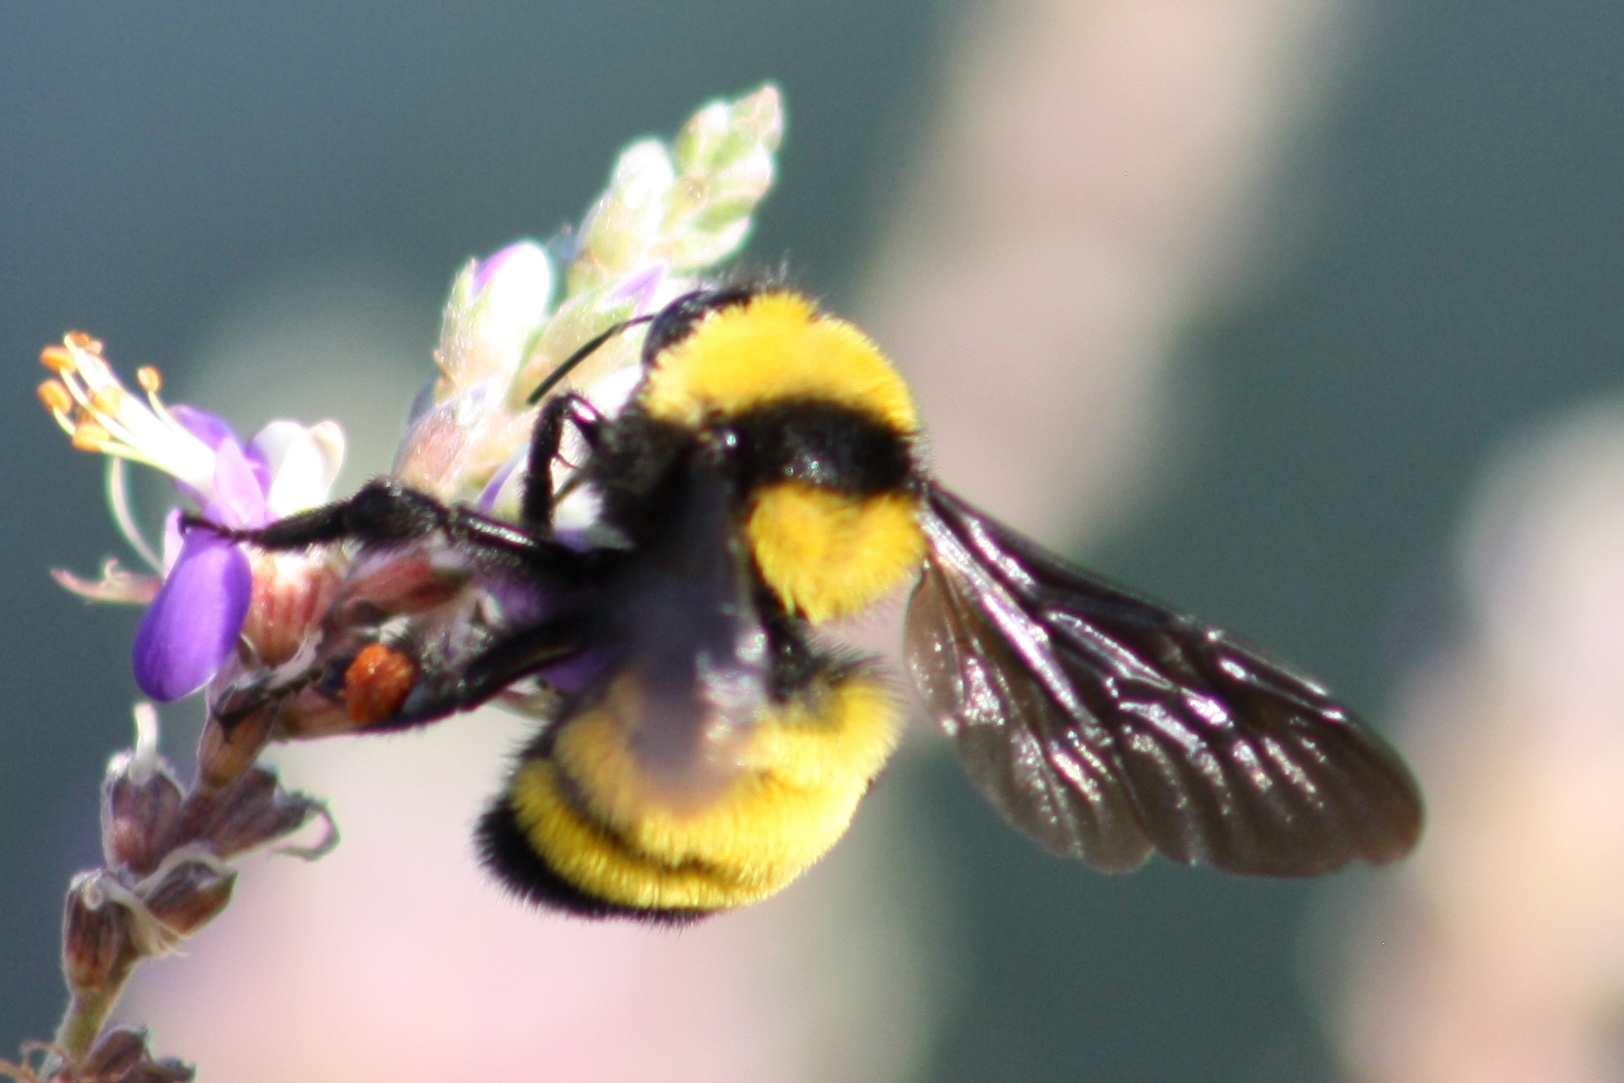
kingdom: Animalia
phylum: Arthropoda
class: Insecta
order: Hymenoptera
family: Apidae
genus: Bombus
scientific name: Bombus sonorus
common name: Sonoran bumble bee
